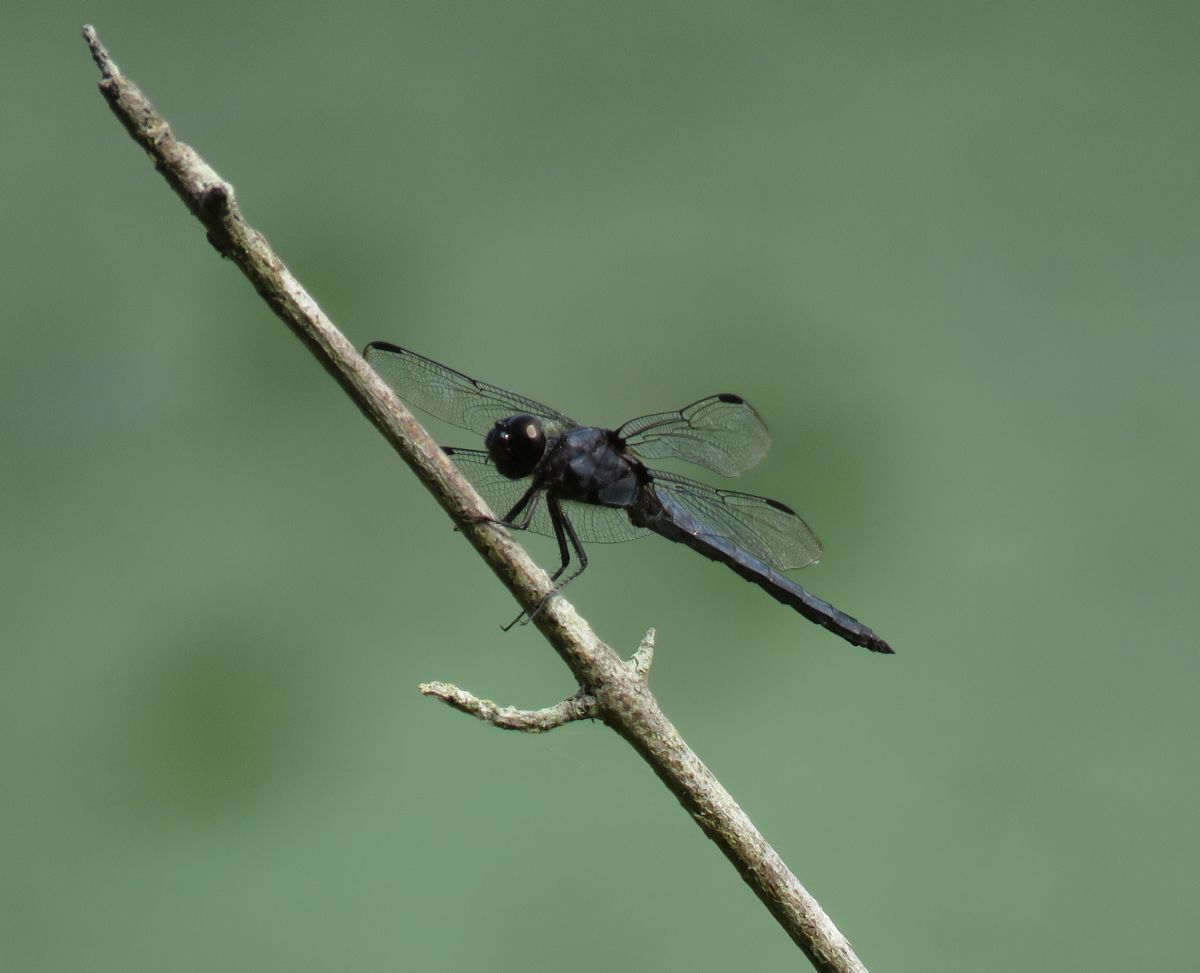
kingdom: Animalia
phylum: Arthropoda
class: Insecta
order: Odonata
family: Libellulidae
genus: Libellula
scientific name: Libellula incesta
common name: Slaty skimmer
